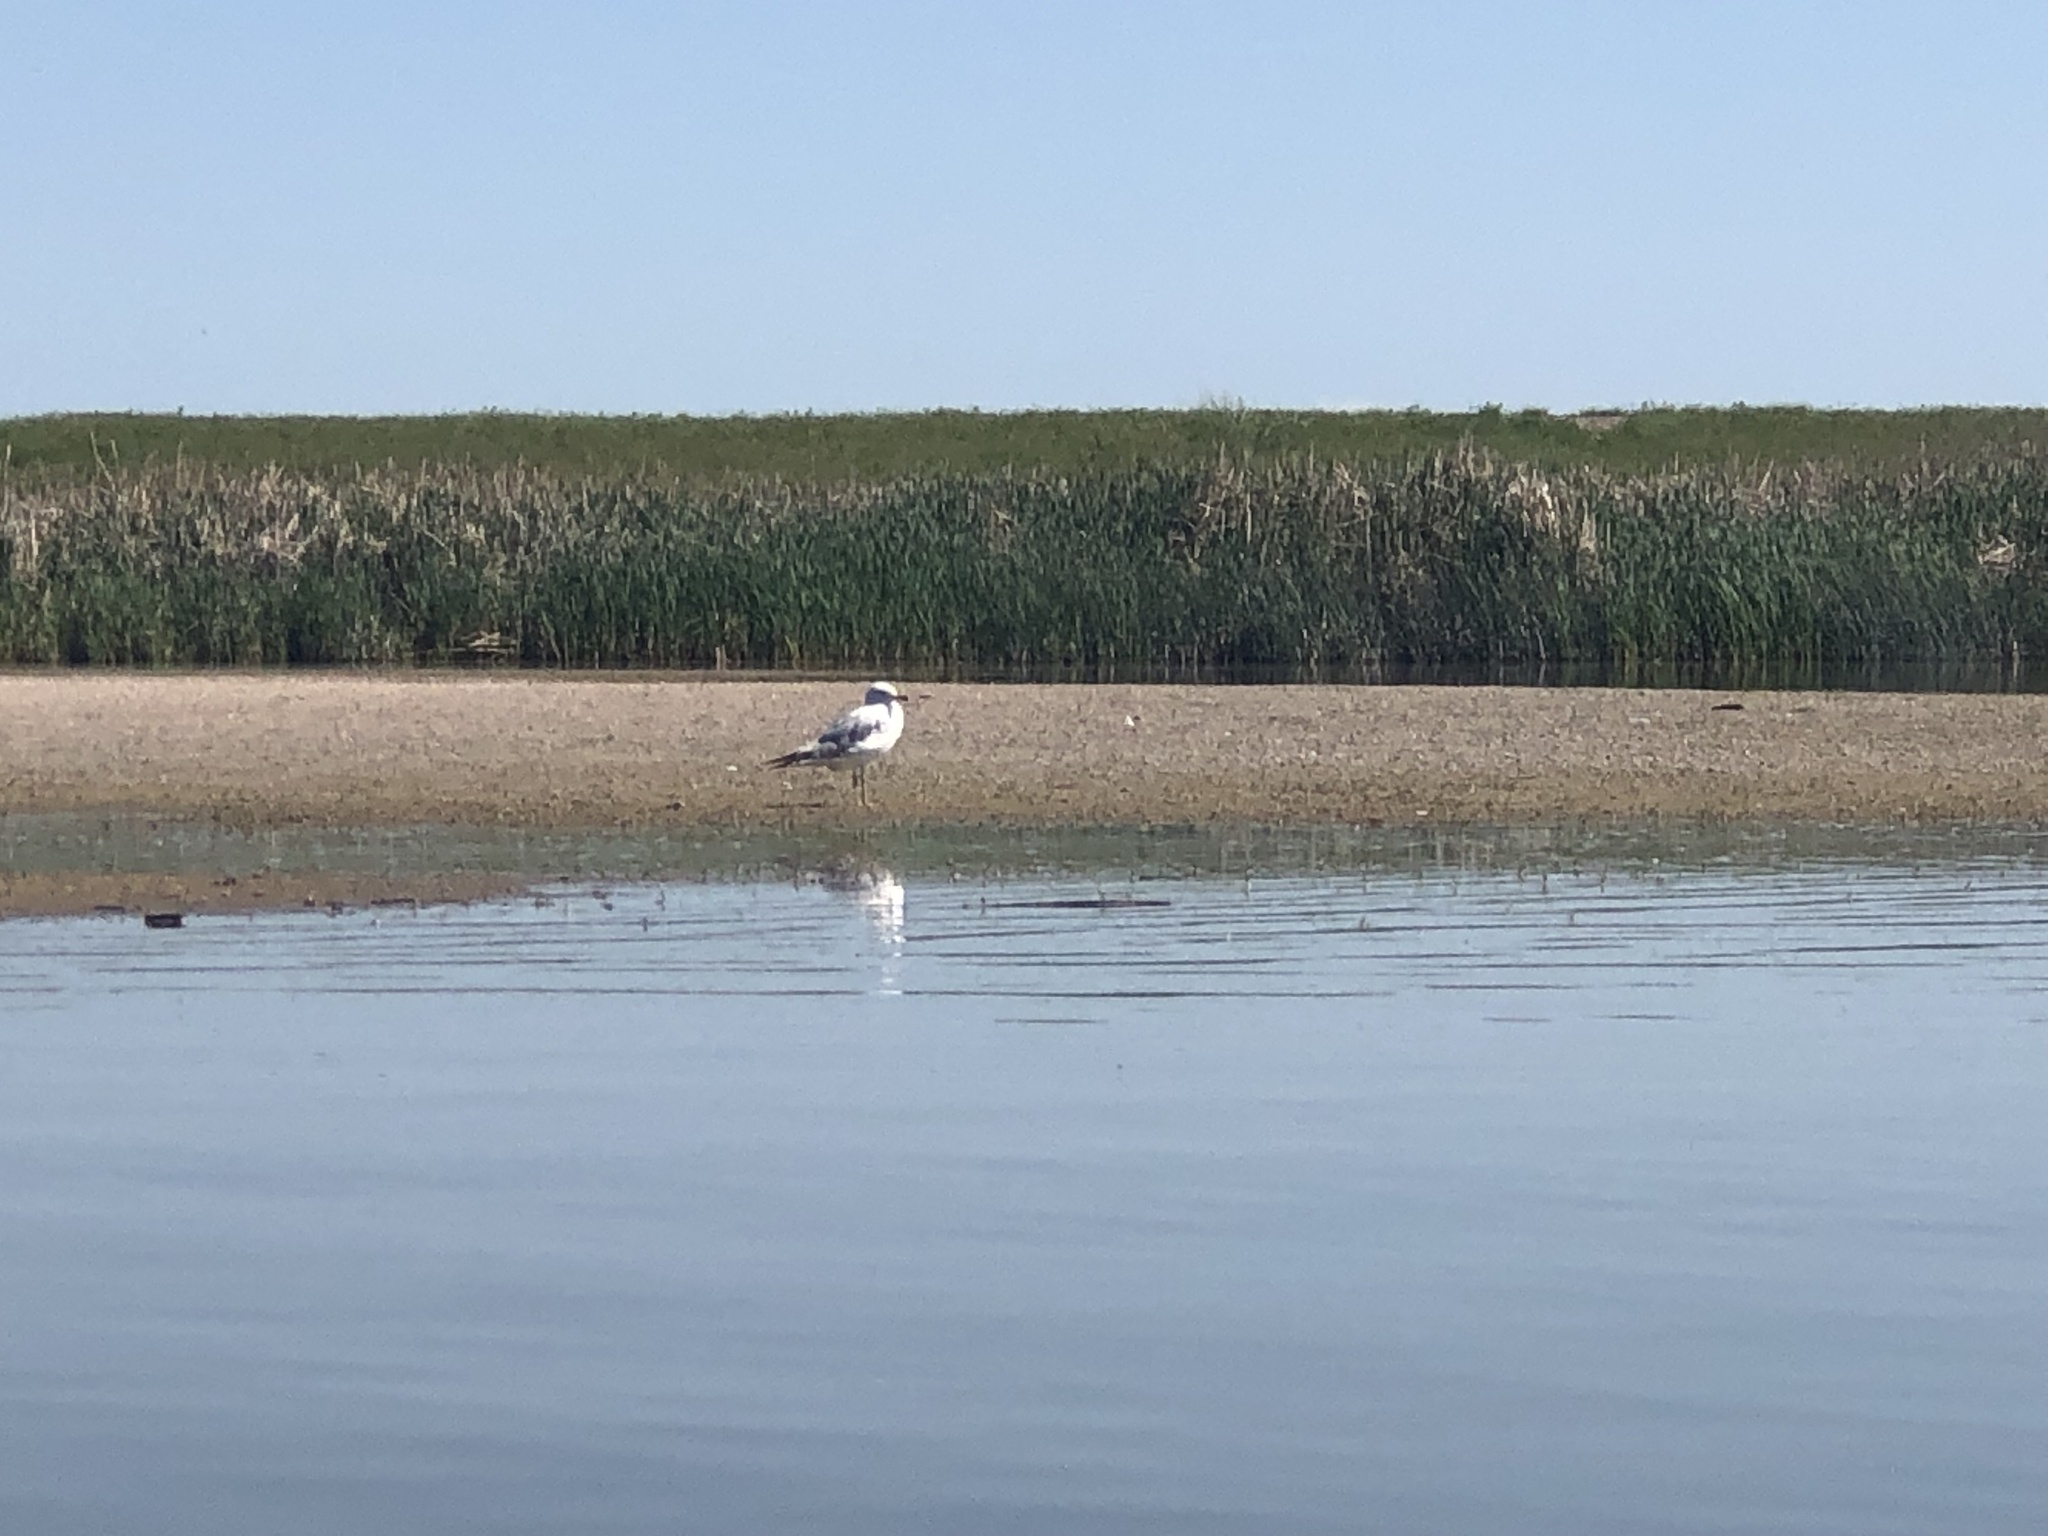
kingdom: Animalia
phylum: Chordata
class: Aves
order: Charadriiformes
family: Laridae
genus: Larus
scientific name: Larus delawarensis
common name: Ring-billed gull
